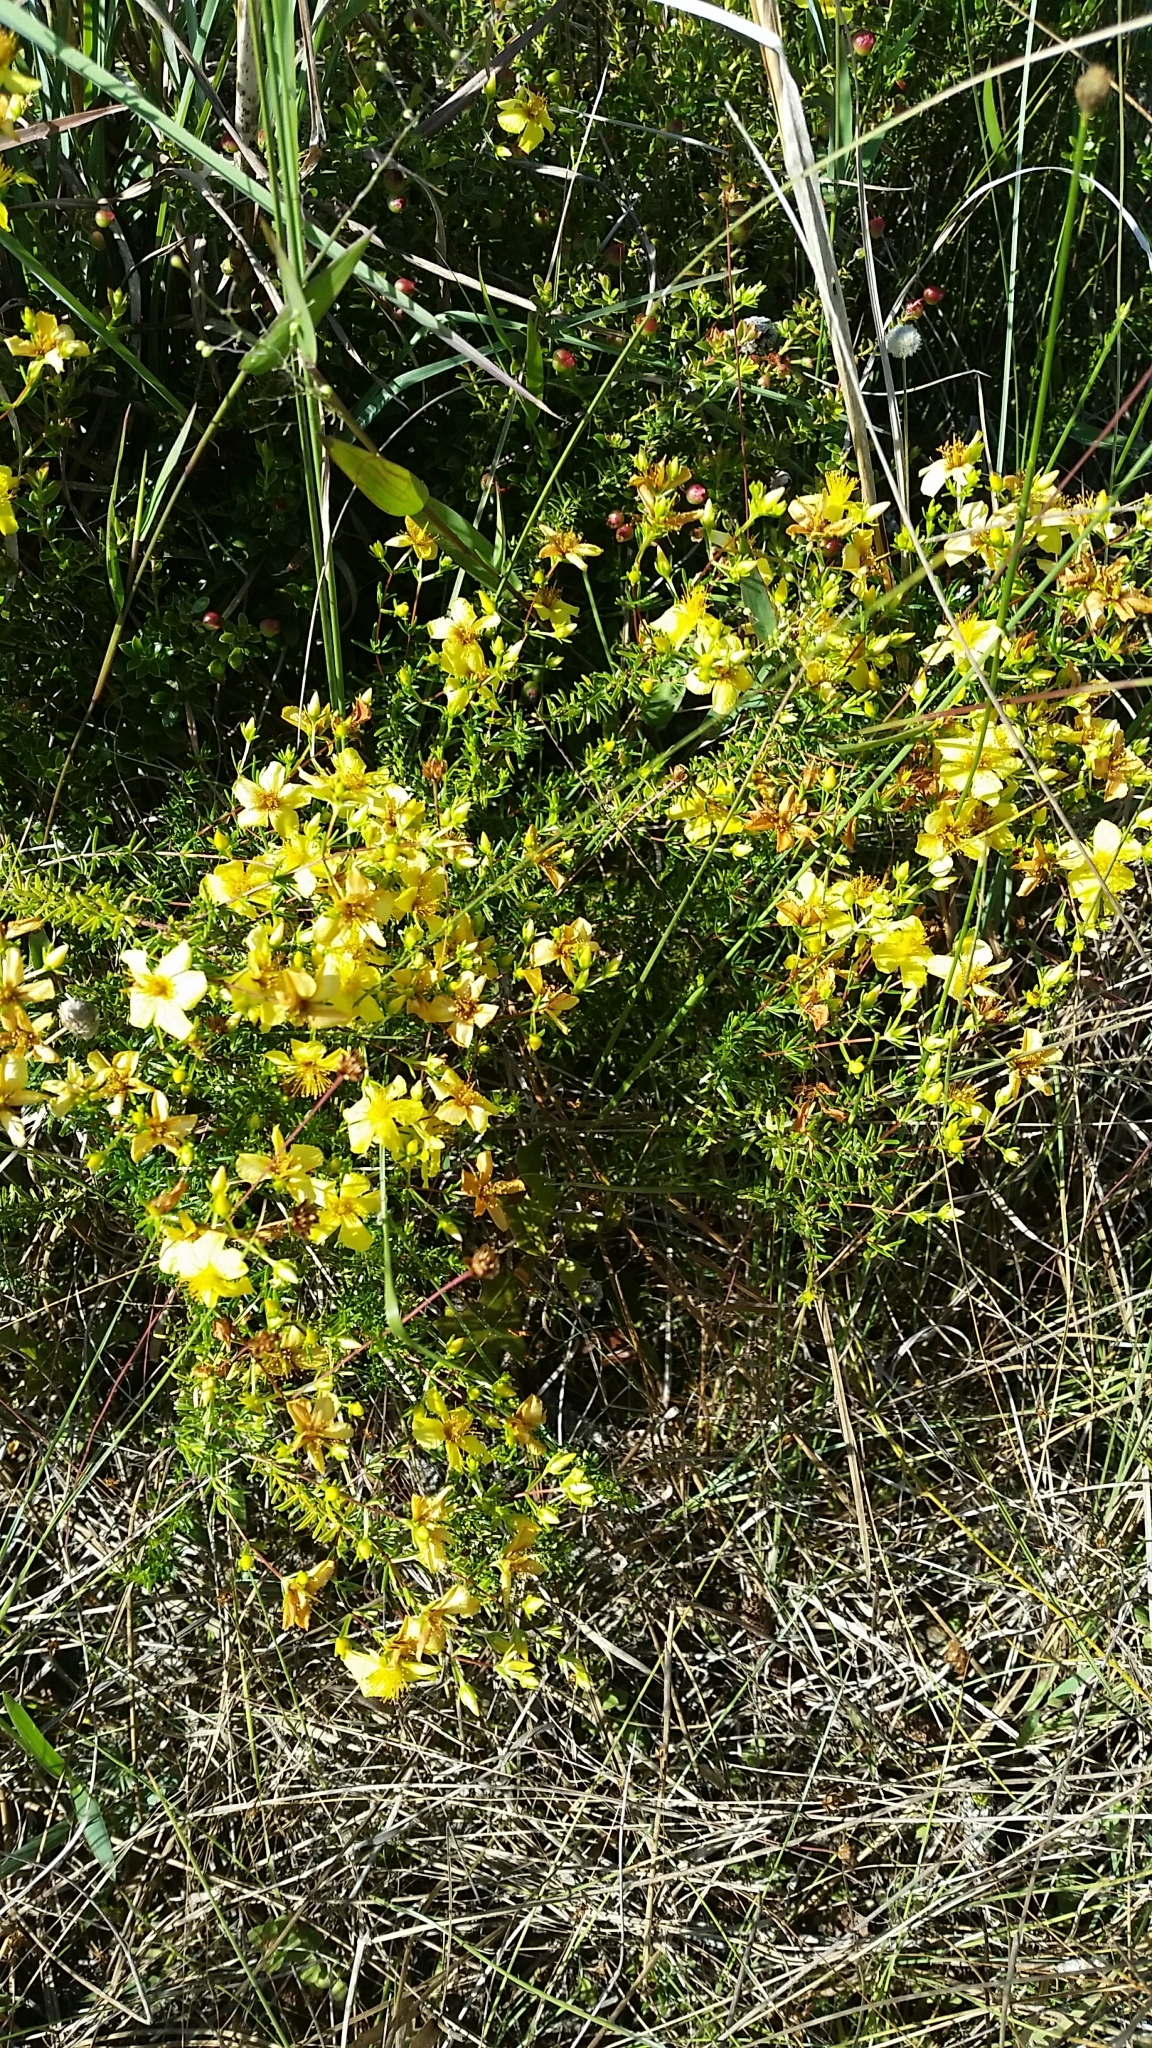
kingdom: Plantae
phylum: Tracheophyta
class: Magnoliopsida
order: Malpighiales
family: Hypericaceae
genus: Hypericum
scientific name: Hypericum tenuifolium
